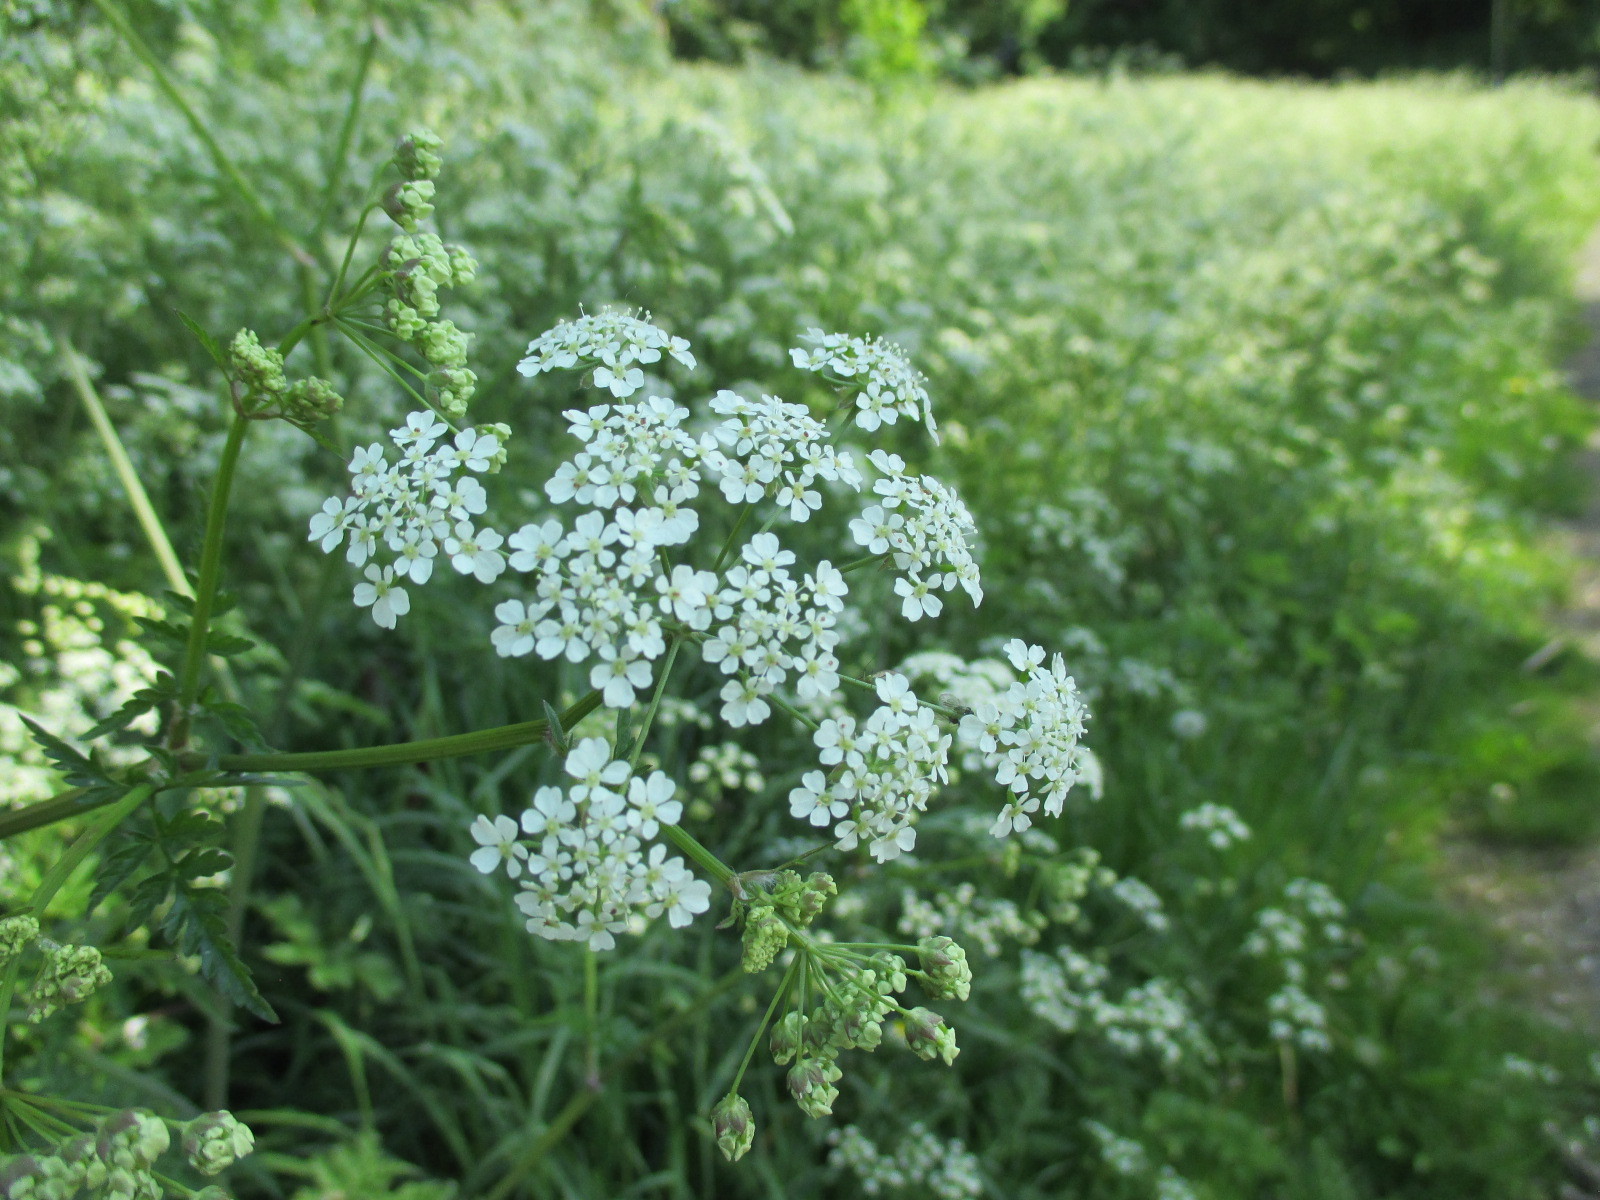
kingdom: Plantae
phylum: Tracheophyta
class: Magnoliopsida
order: Apiales
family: Apiaceae
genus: Anthriscus
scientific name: Anthriscus sylvestris
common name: Cow parsley
